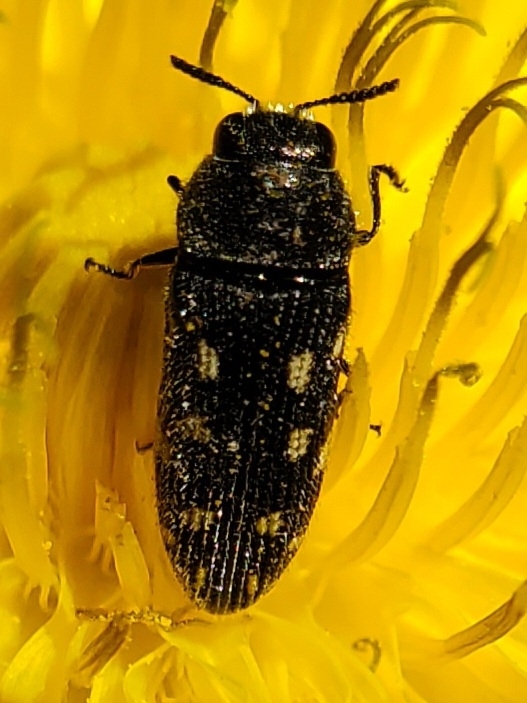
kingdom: Animalia
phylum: Arthropoda
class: Insecta
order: Coleoptera
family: Buprestidae
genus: Acmaeodera
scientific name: Acmaeodera tubulus
